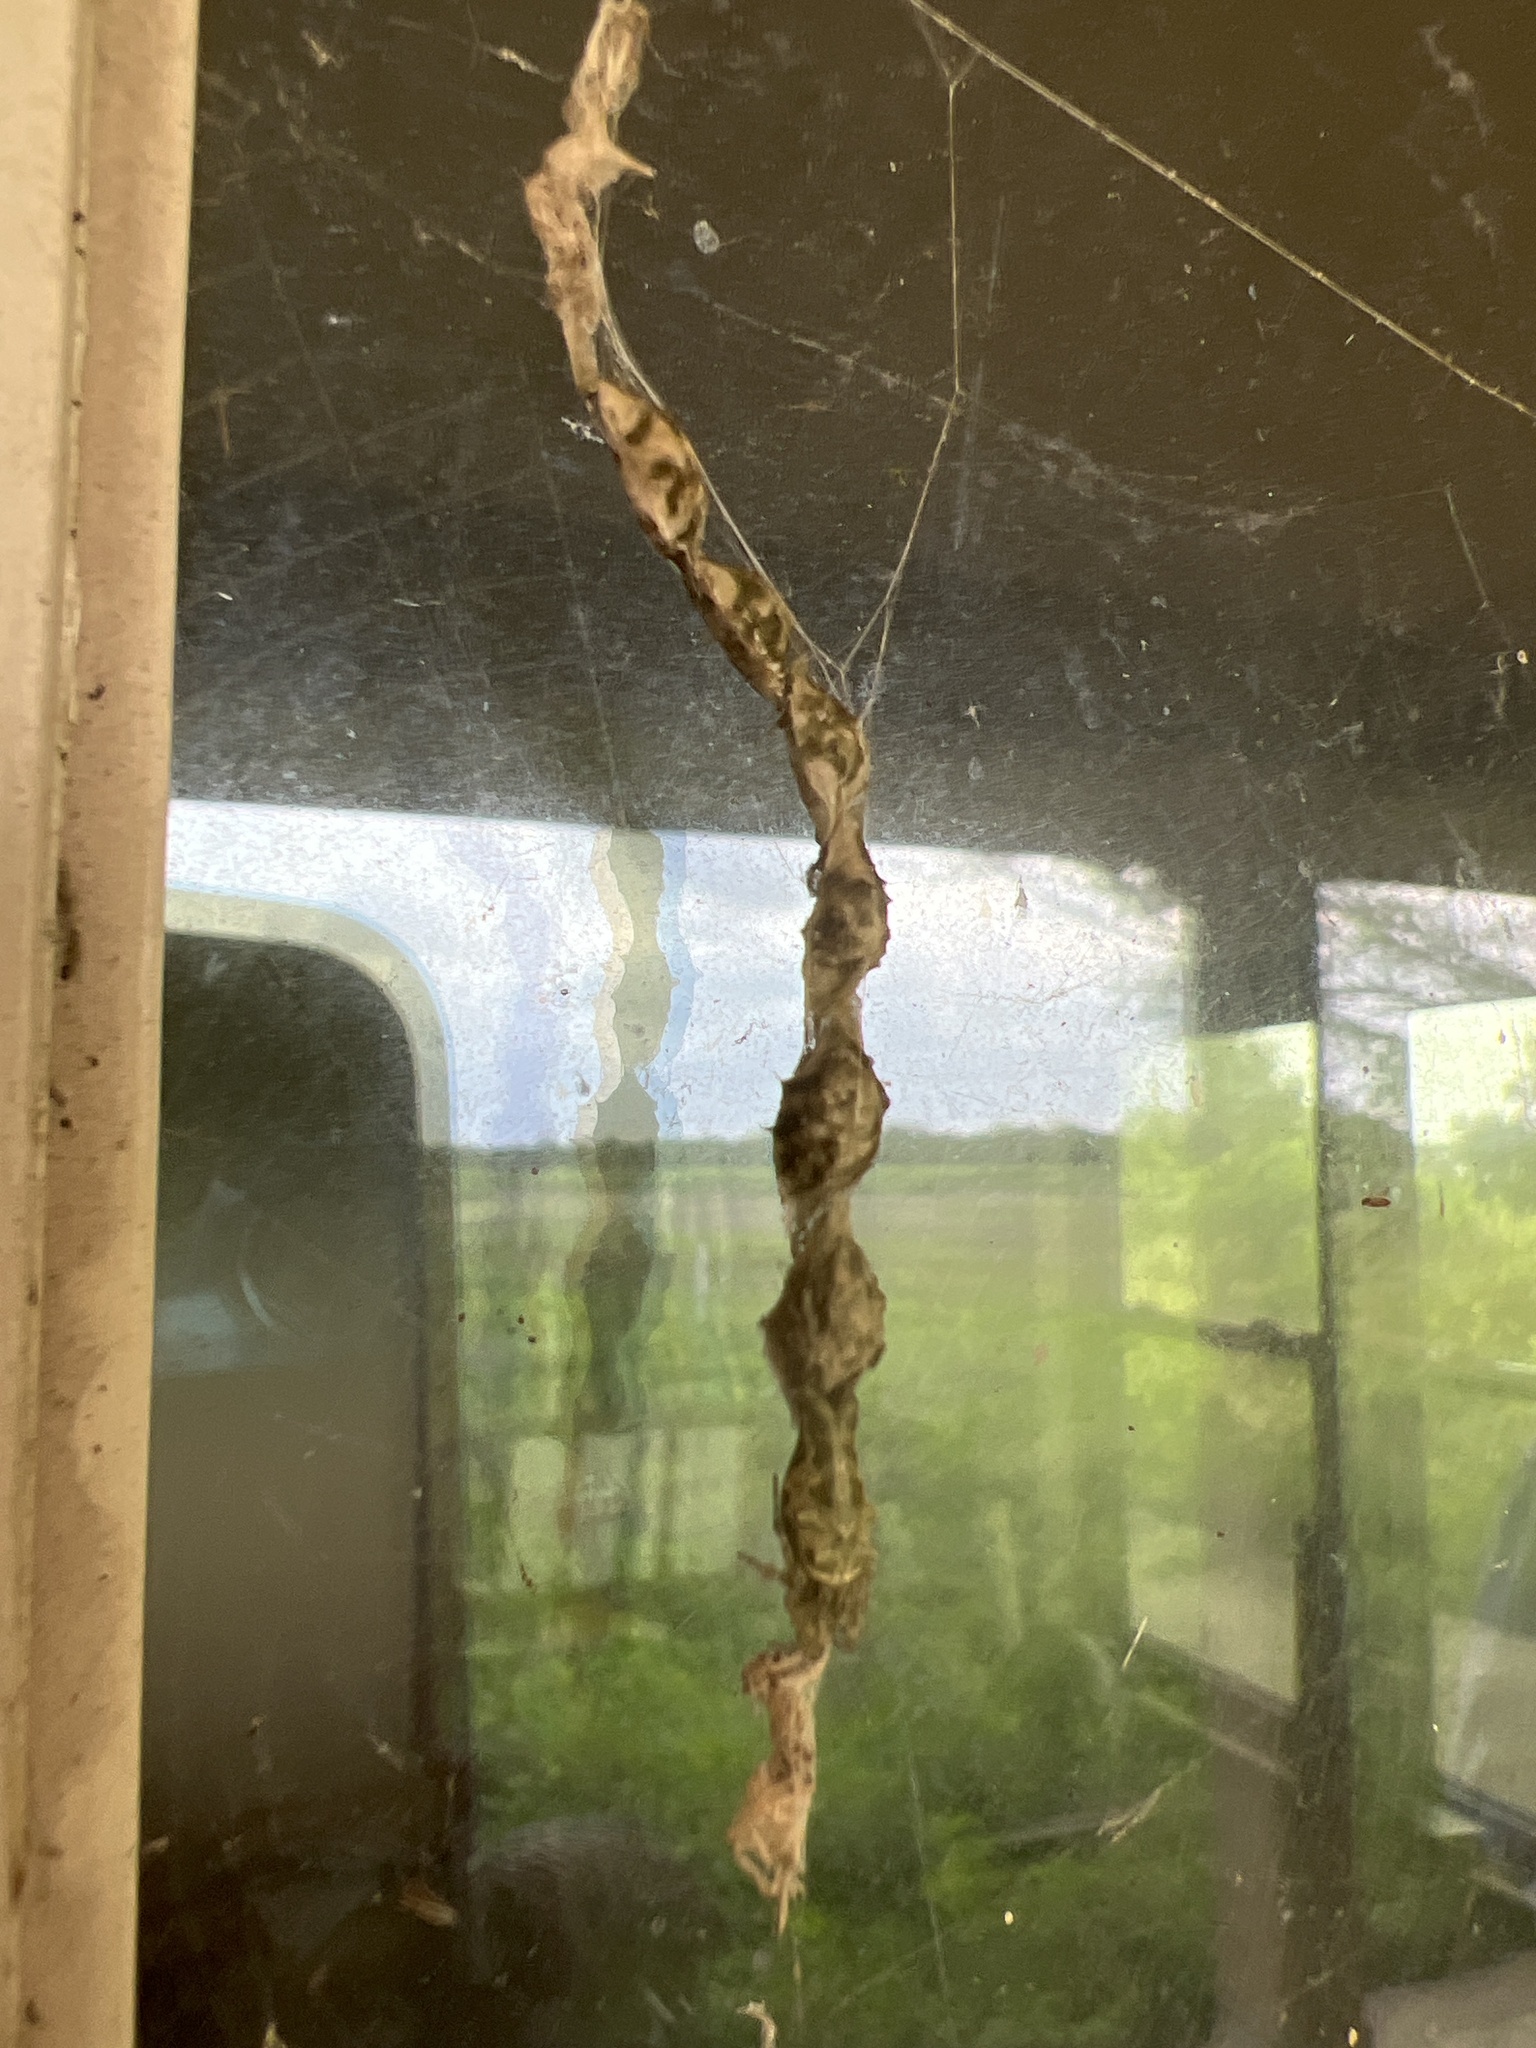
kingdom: Animalia
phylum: Arthropoda
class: Arachnida
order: Araneae
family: Araneidae
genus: Allocyclosa
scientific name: Allocyclosa bifurca
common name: Orb weavers
